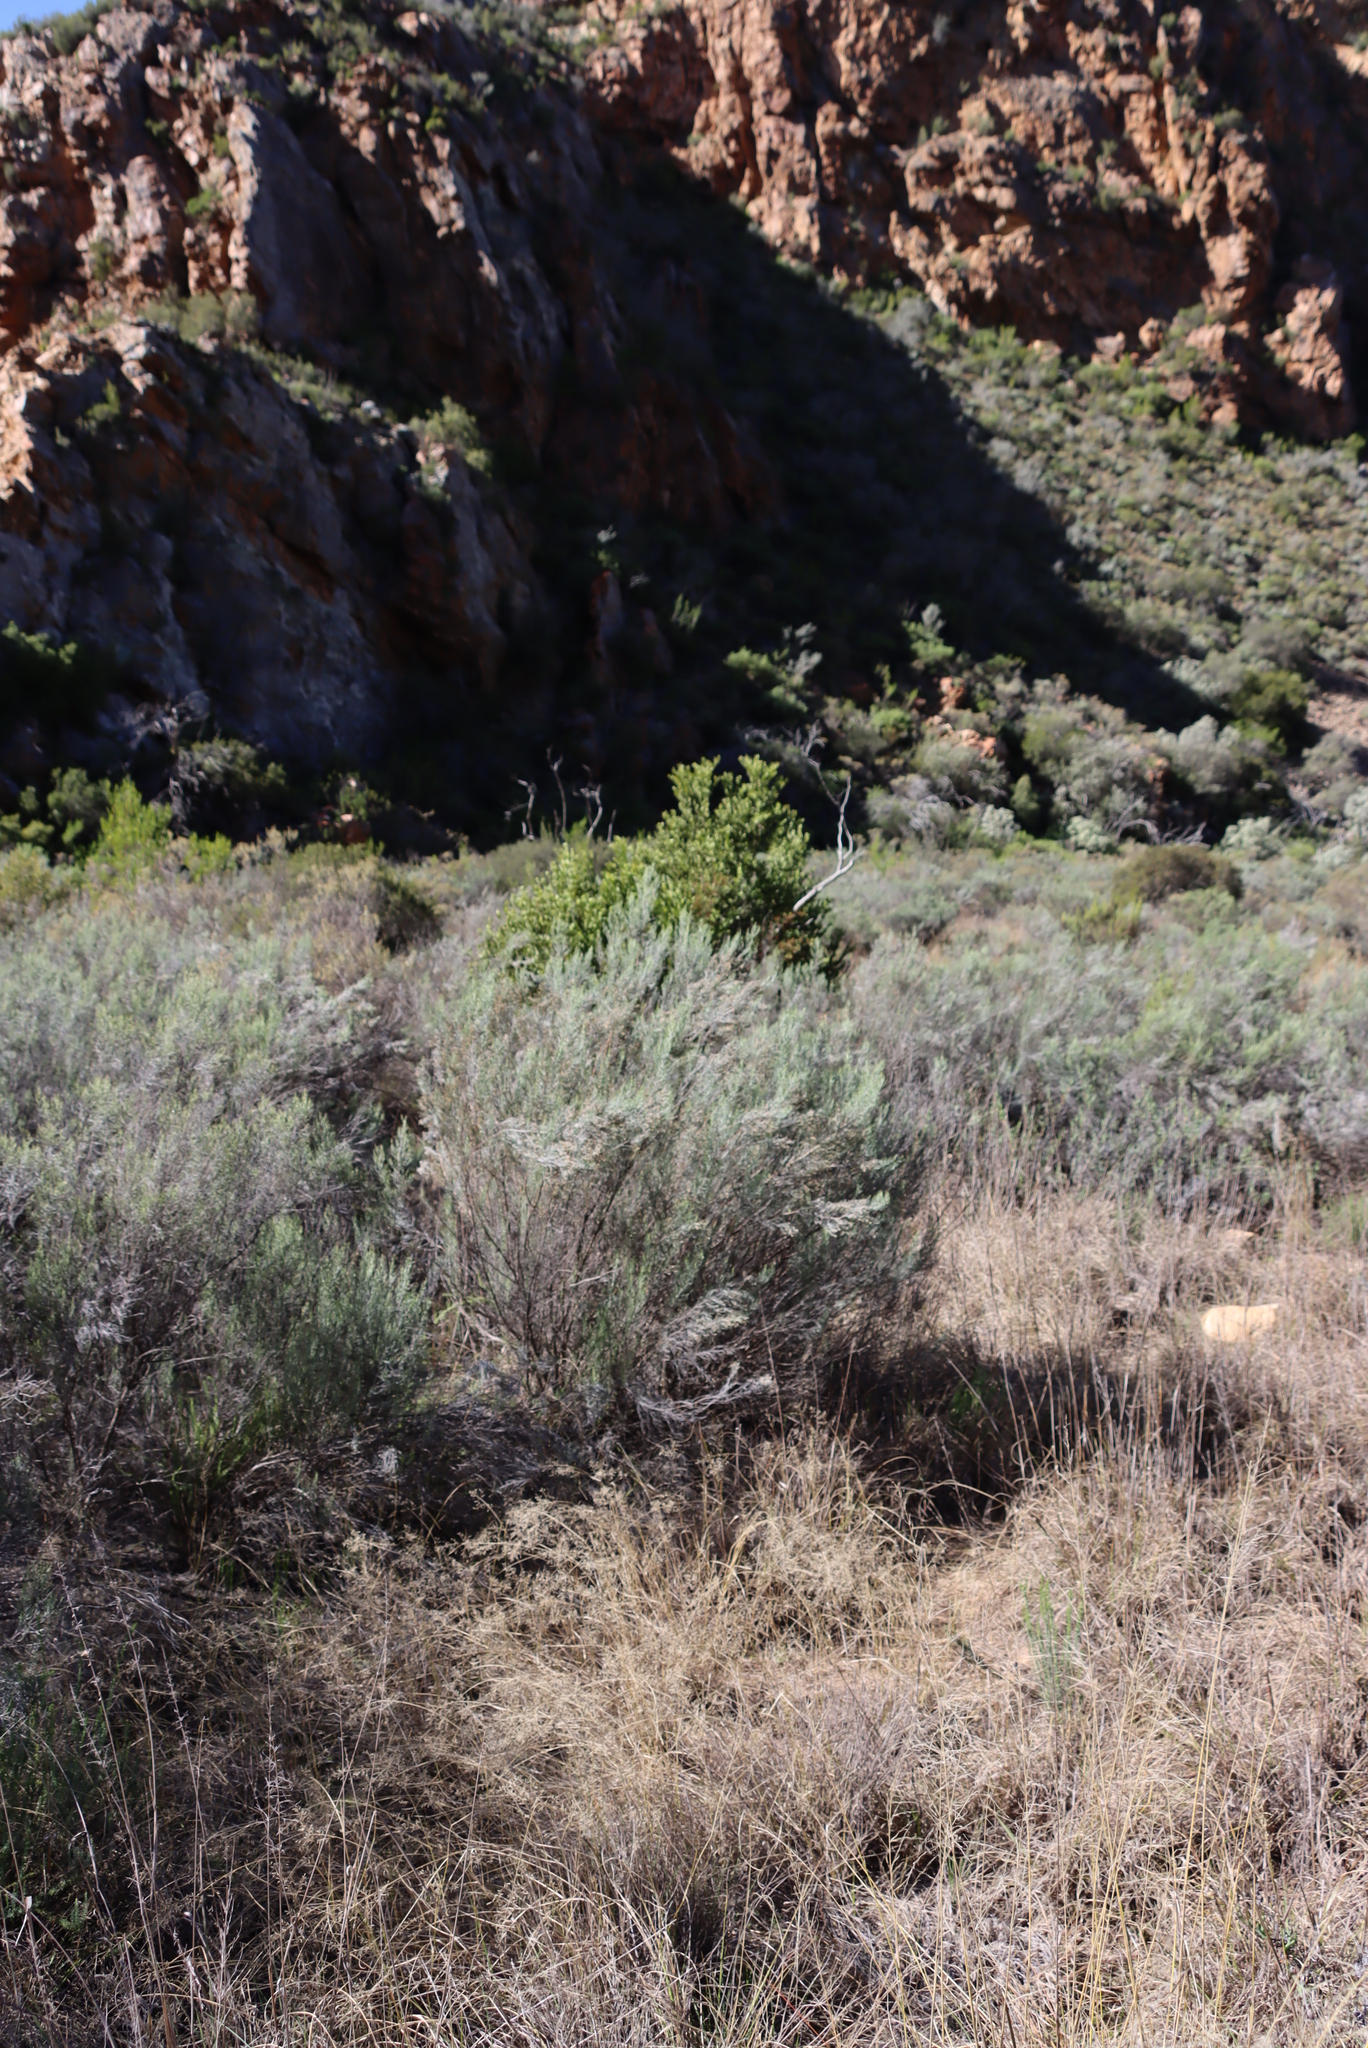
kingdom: Plantae
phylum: Tracheophyta
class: Magnoliopsida
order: Asterales
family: Asteraceae
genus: Dicerothamnus
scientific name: Dicerothamnus rhinocerotis
